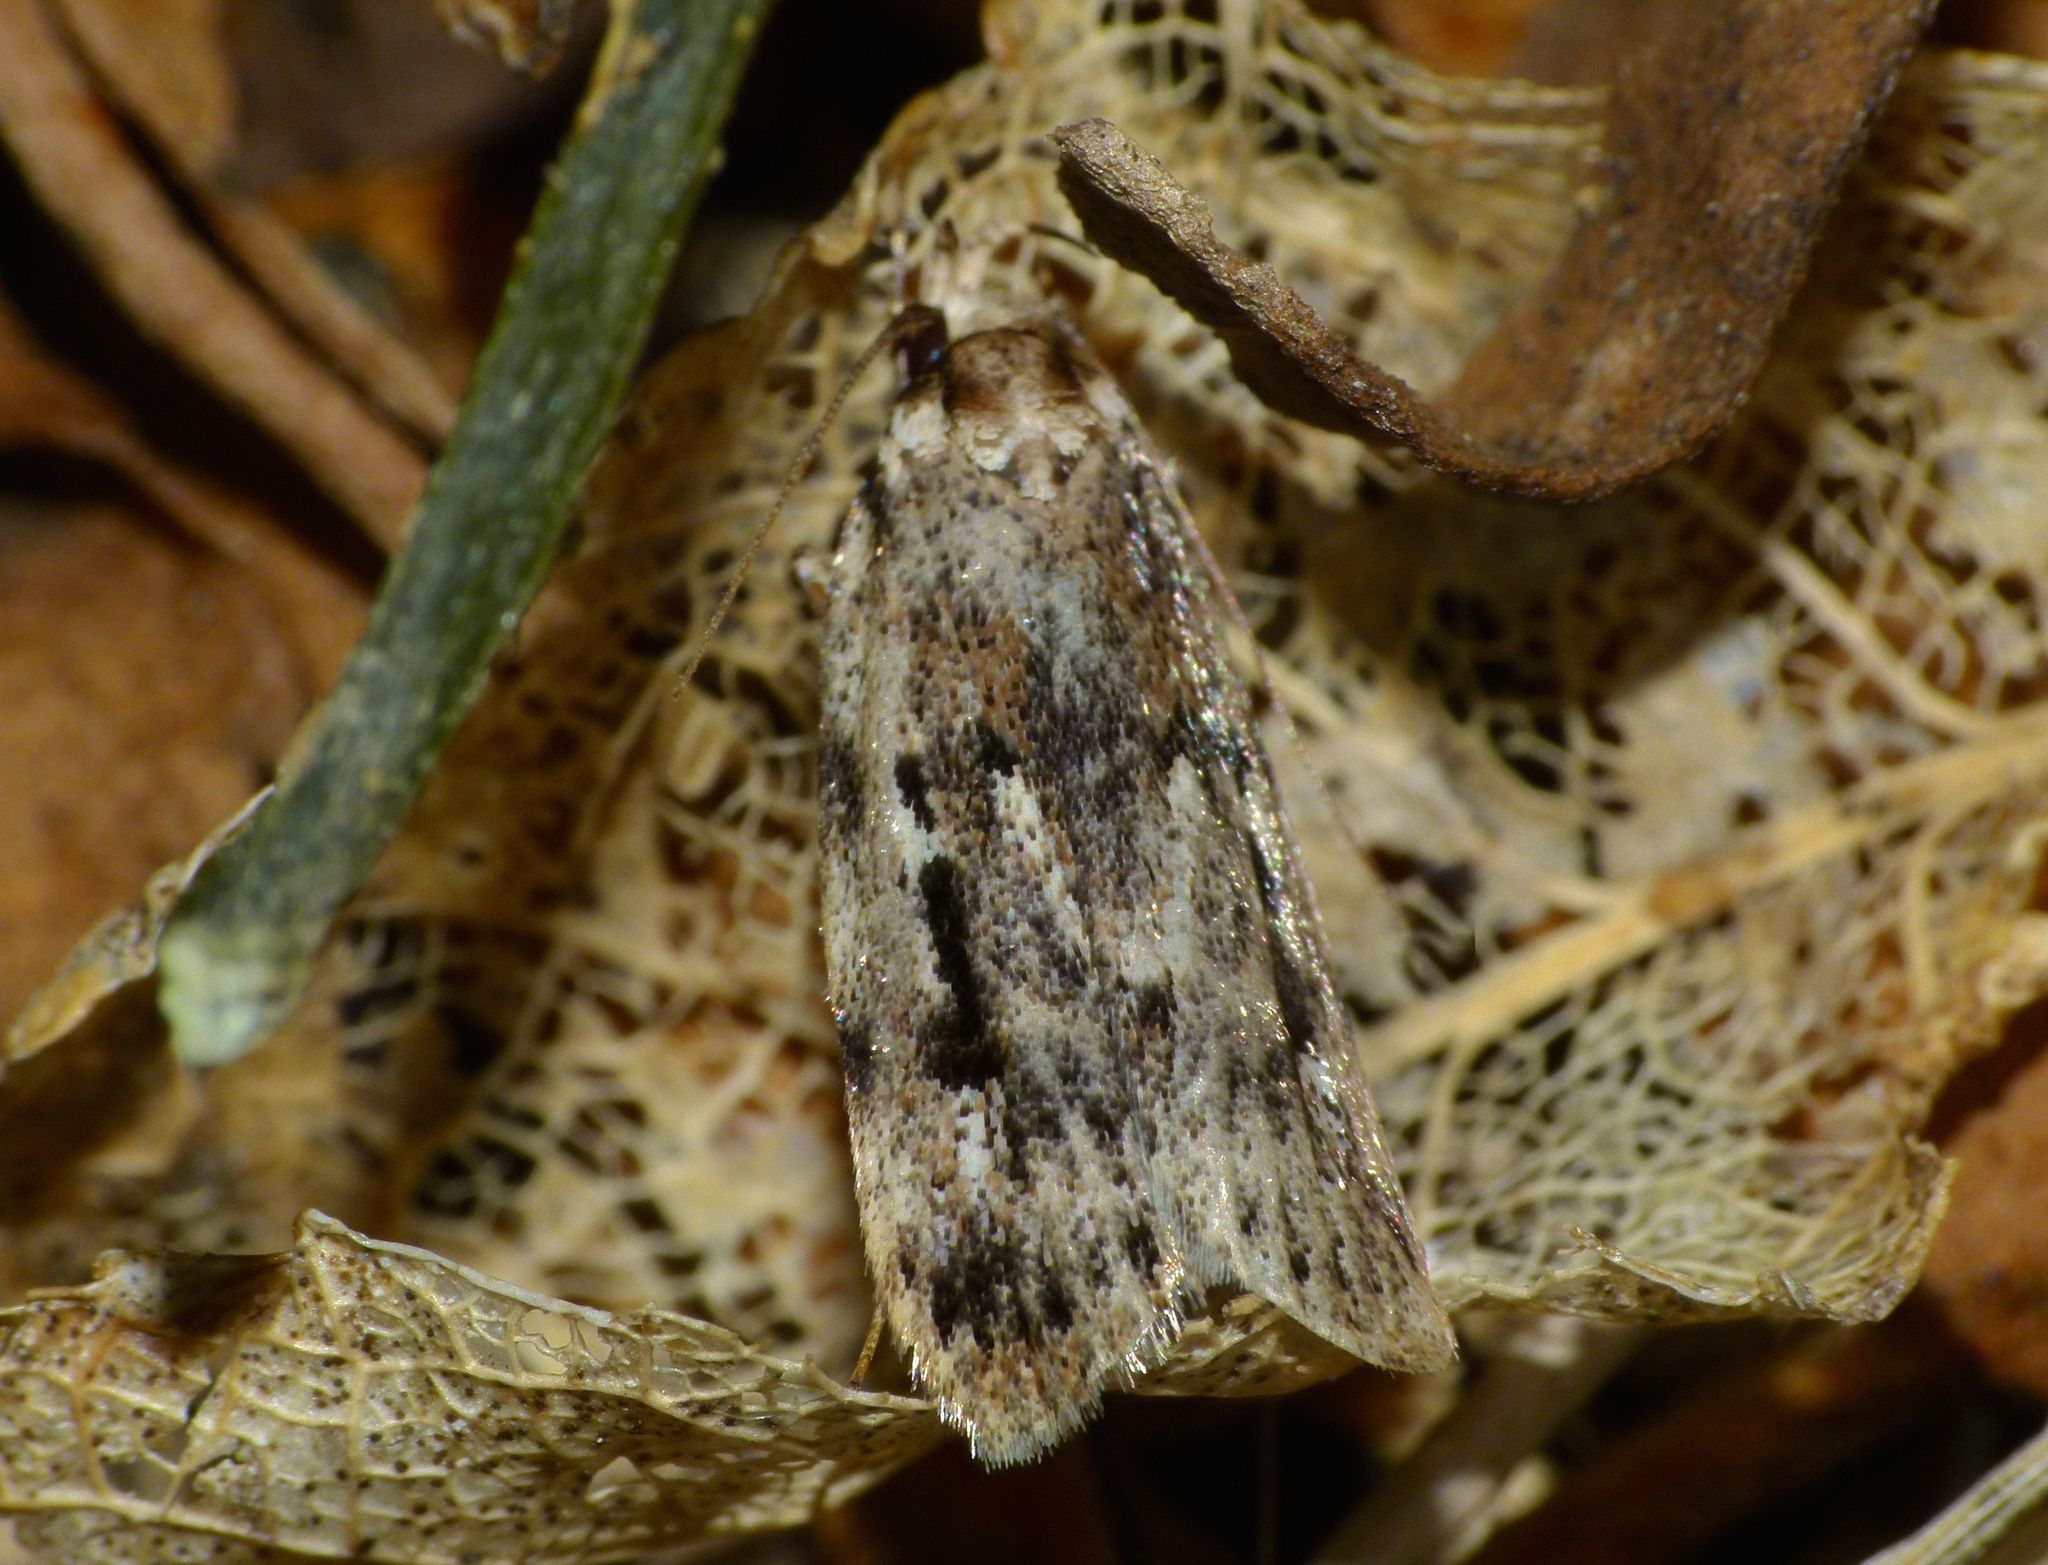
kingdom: Animalia
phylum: Arthropoda
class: Insecta
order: Lepidoptera
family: Oecophoridae
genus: Barea
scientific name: Barea exarcha
